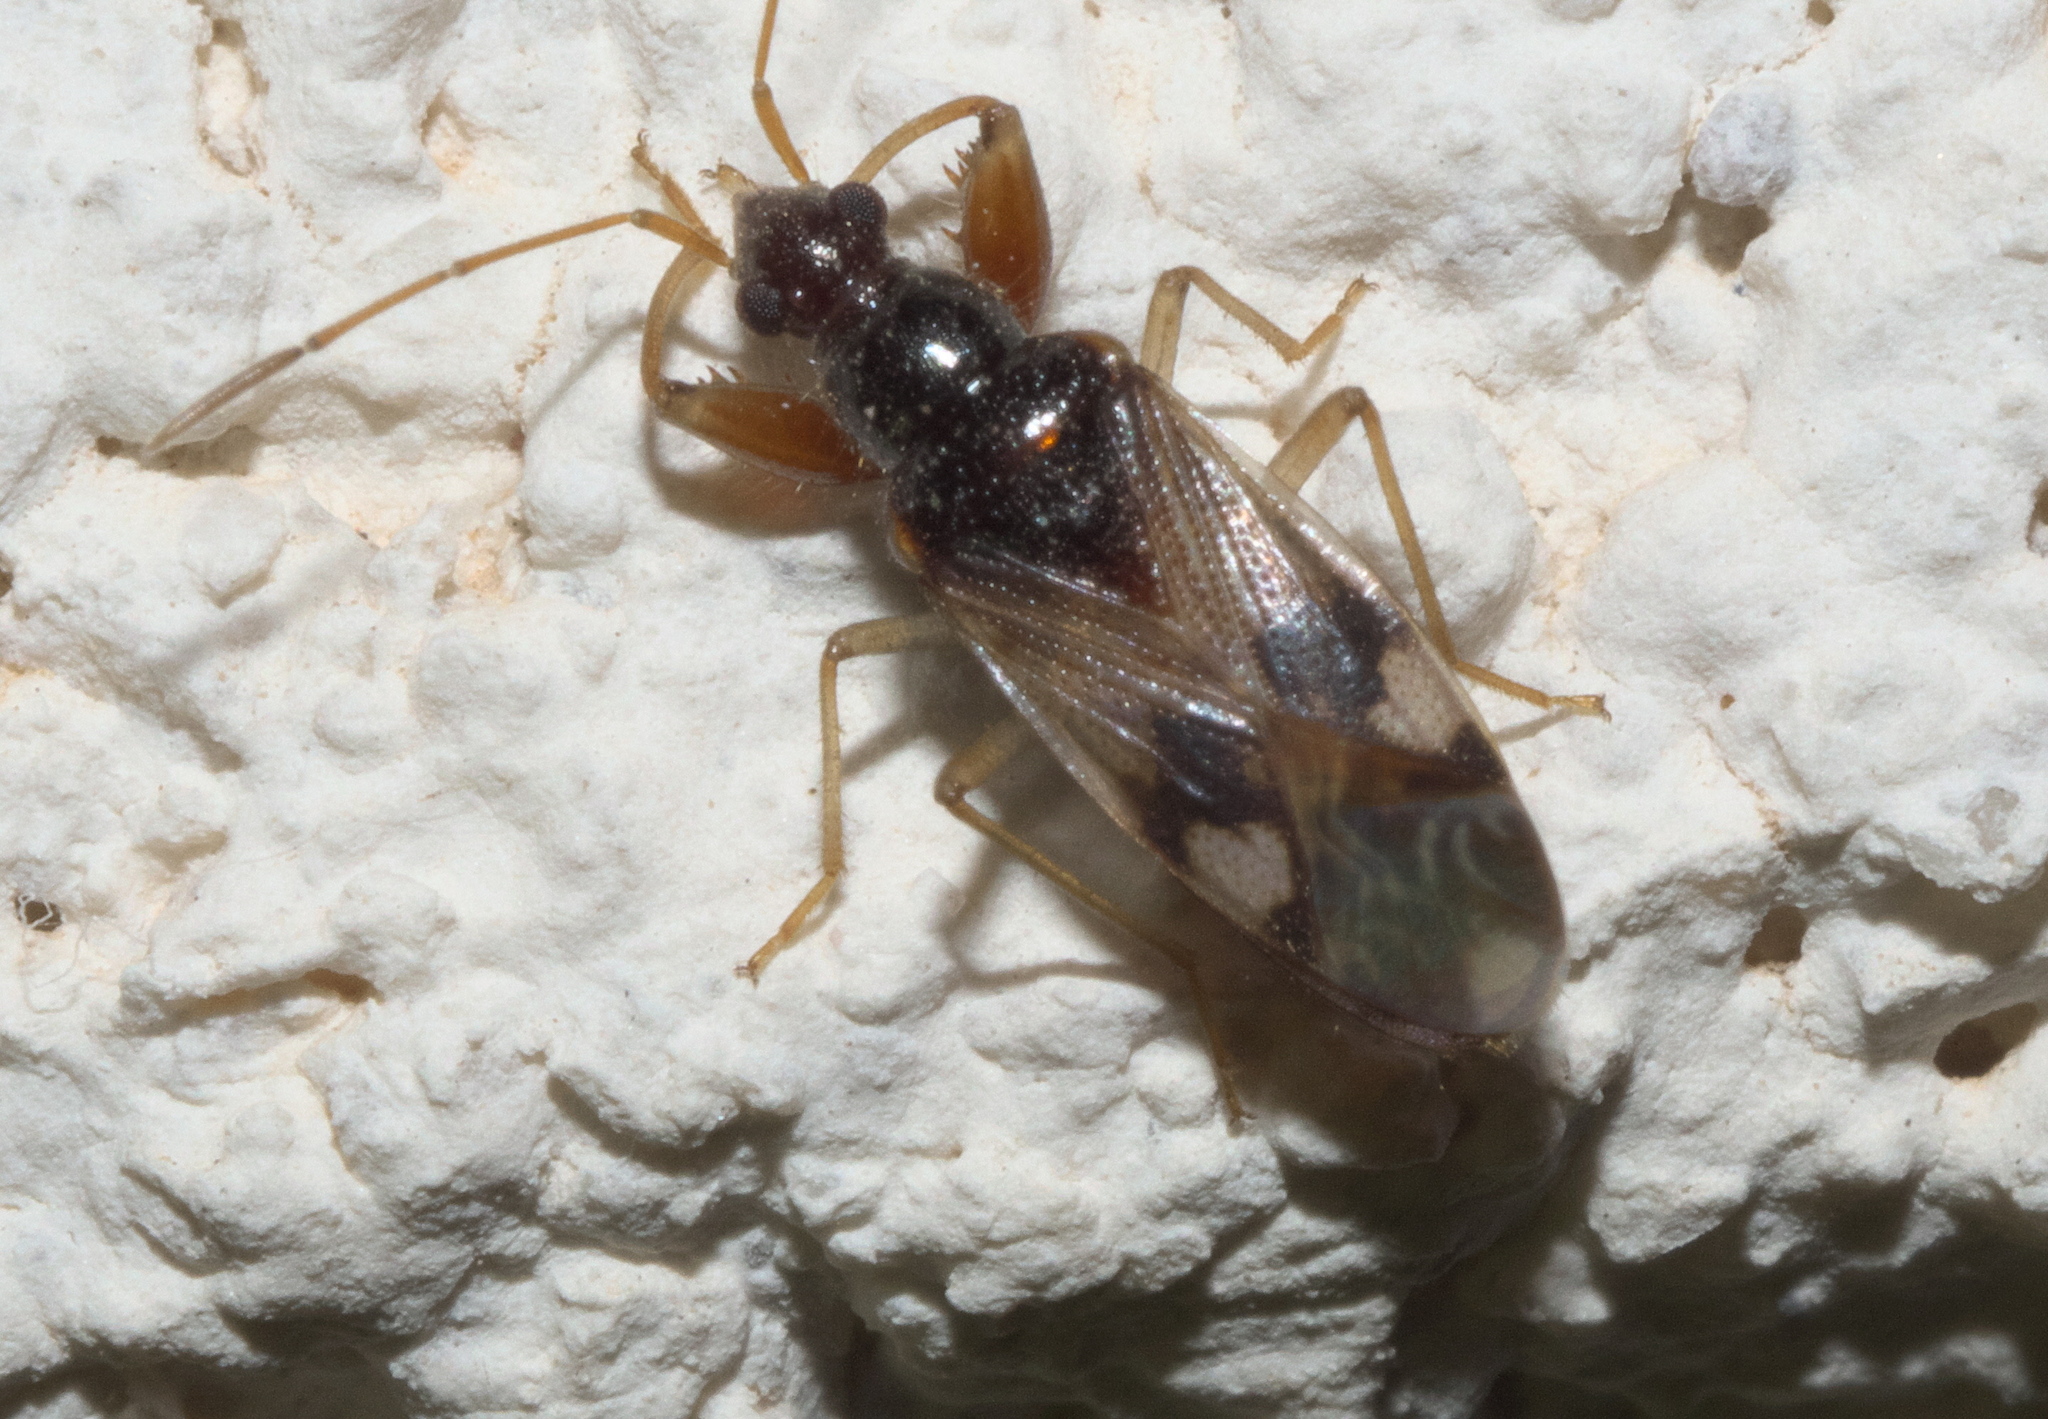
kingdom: Animalia
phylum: Arthropoda
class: Insecta
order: Hemiptera
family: Rhyparochromidae
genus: Pseudopamera
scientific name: Pseudopamera nitidula
